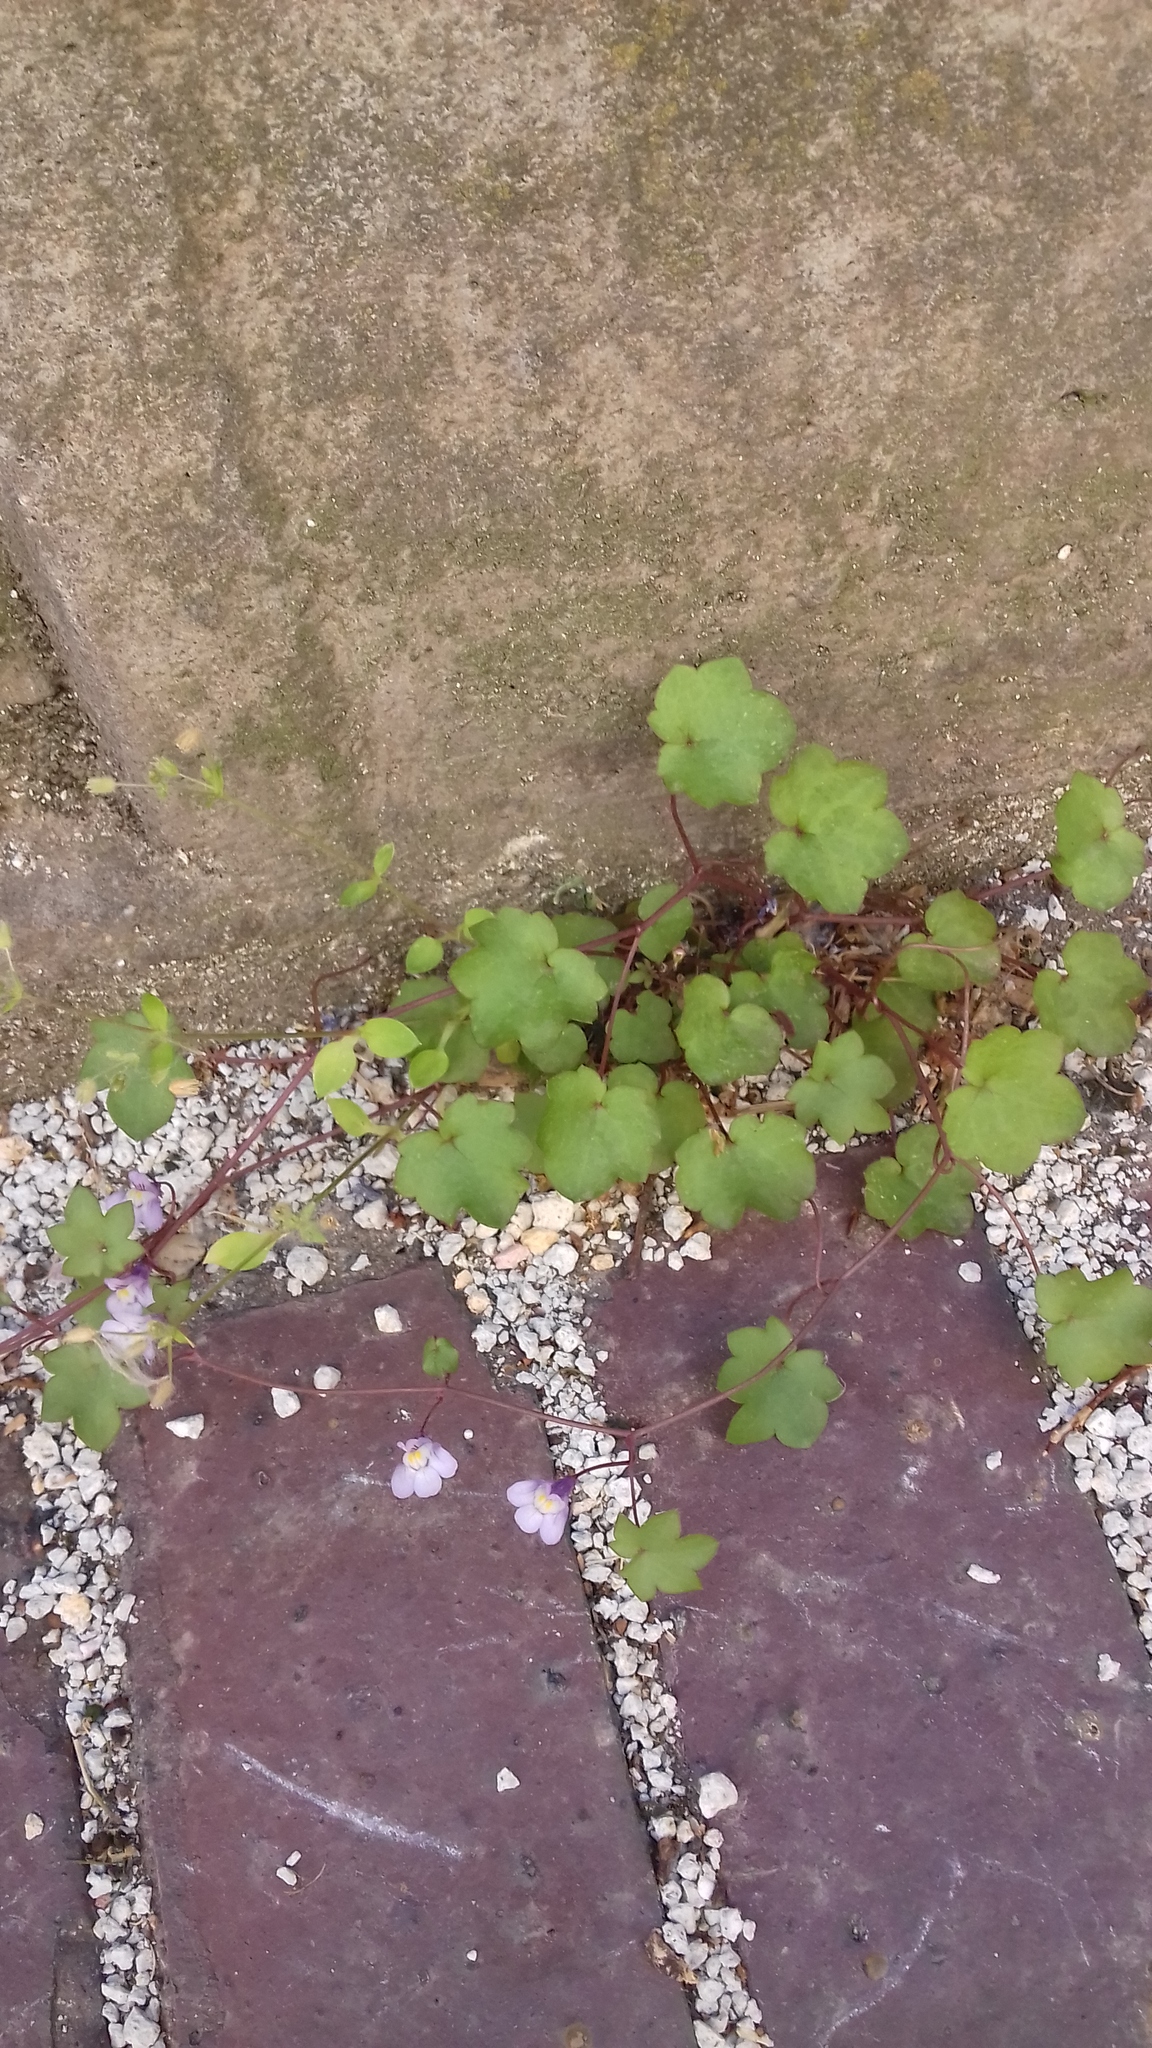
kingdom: Plantae
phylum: Tracheophyta
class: Magnoliopsida
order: Lamiales
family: Plantaginaceae
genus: Cymbalaria
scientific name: Cymbalaria muralis
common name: Ivy-leaved toadflax
